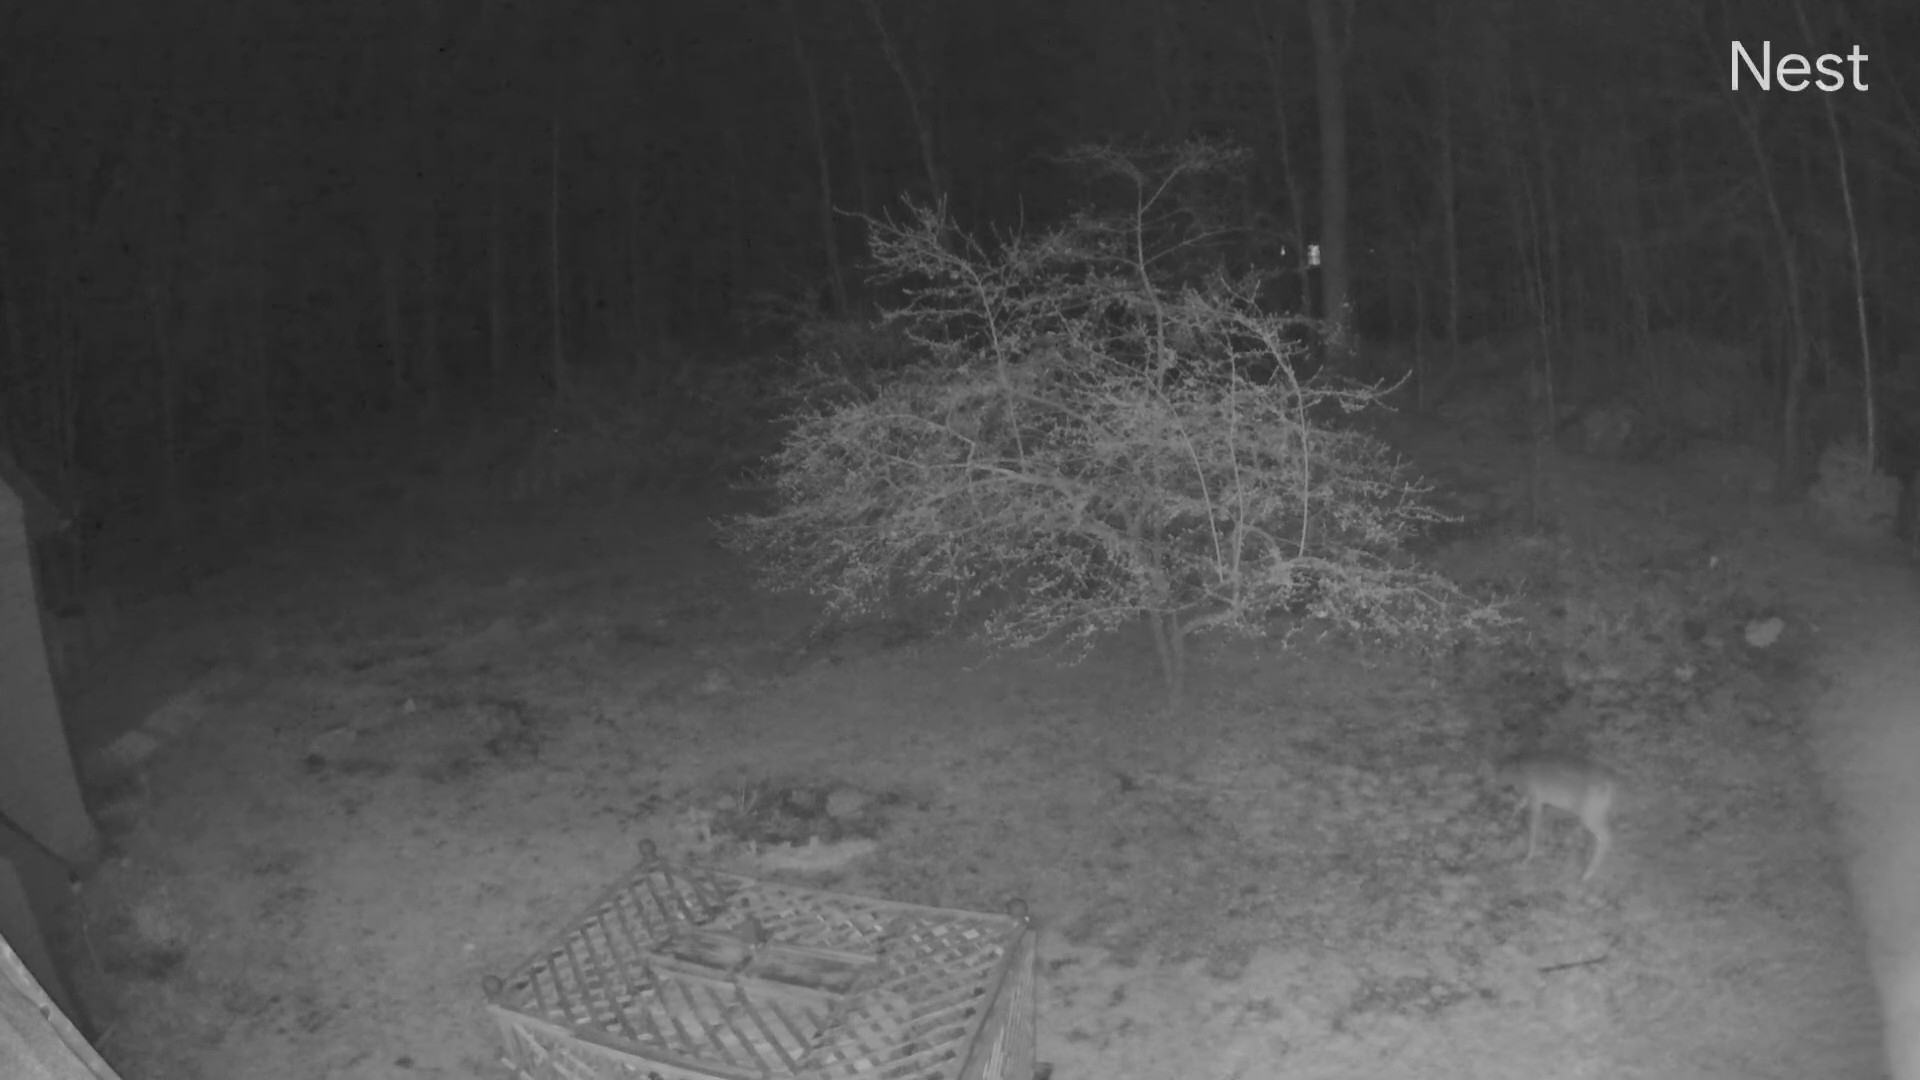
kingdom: Animalia
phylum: Chordata
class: Mammalia
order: Artiodactyla
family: Cervidae
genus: Odocoileus
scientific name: Odocoileus virginianus
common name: White-tailed deer
